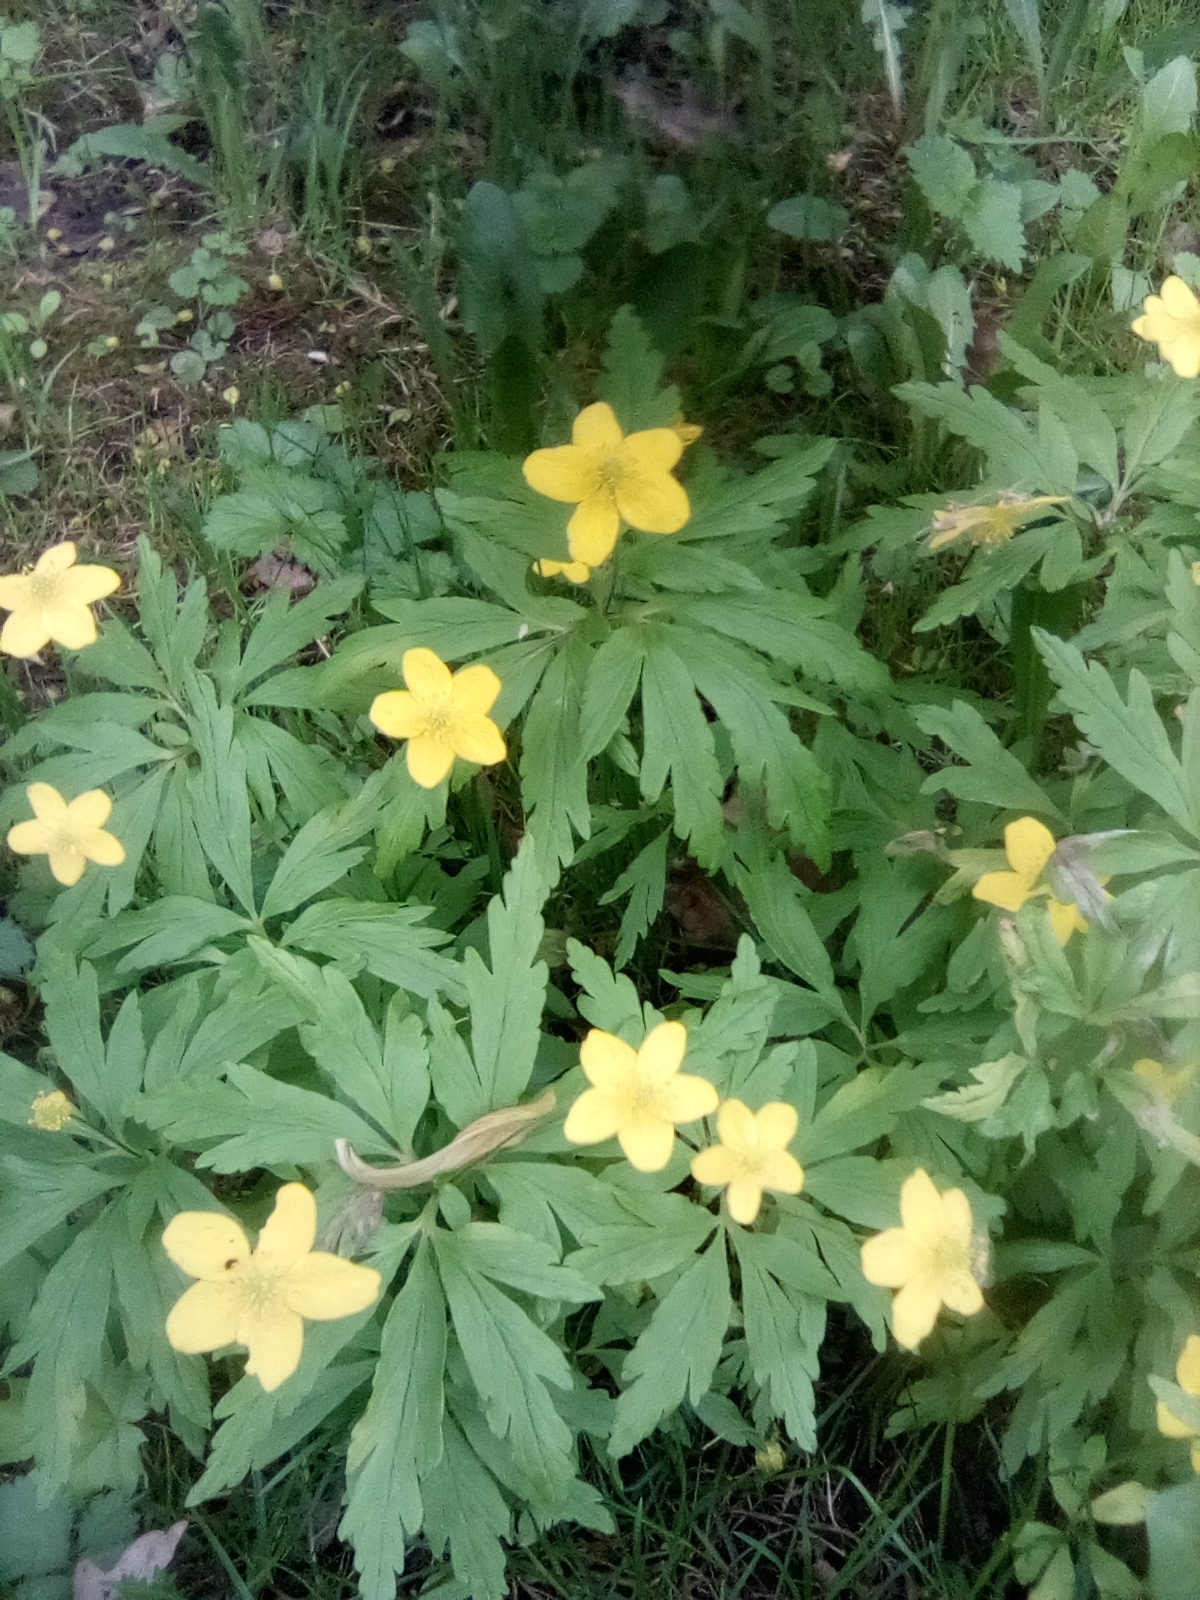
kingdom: Plantae
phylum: Tracheophyta
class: Magnoliopsida
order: Ranunculales
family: Ranunculaceae
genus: Anemone
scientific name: Anemone ranunculoides
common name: Yellow anemone
